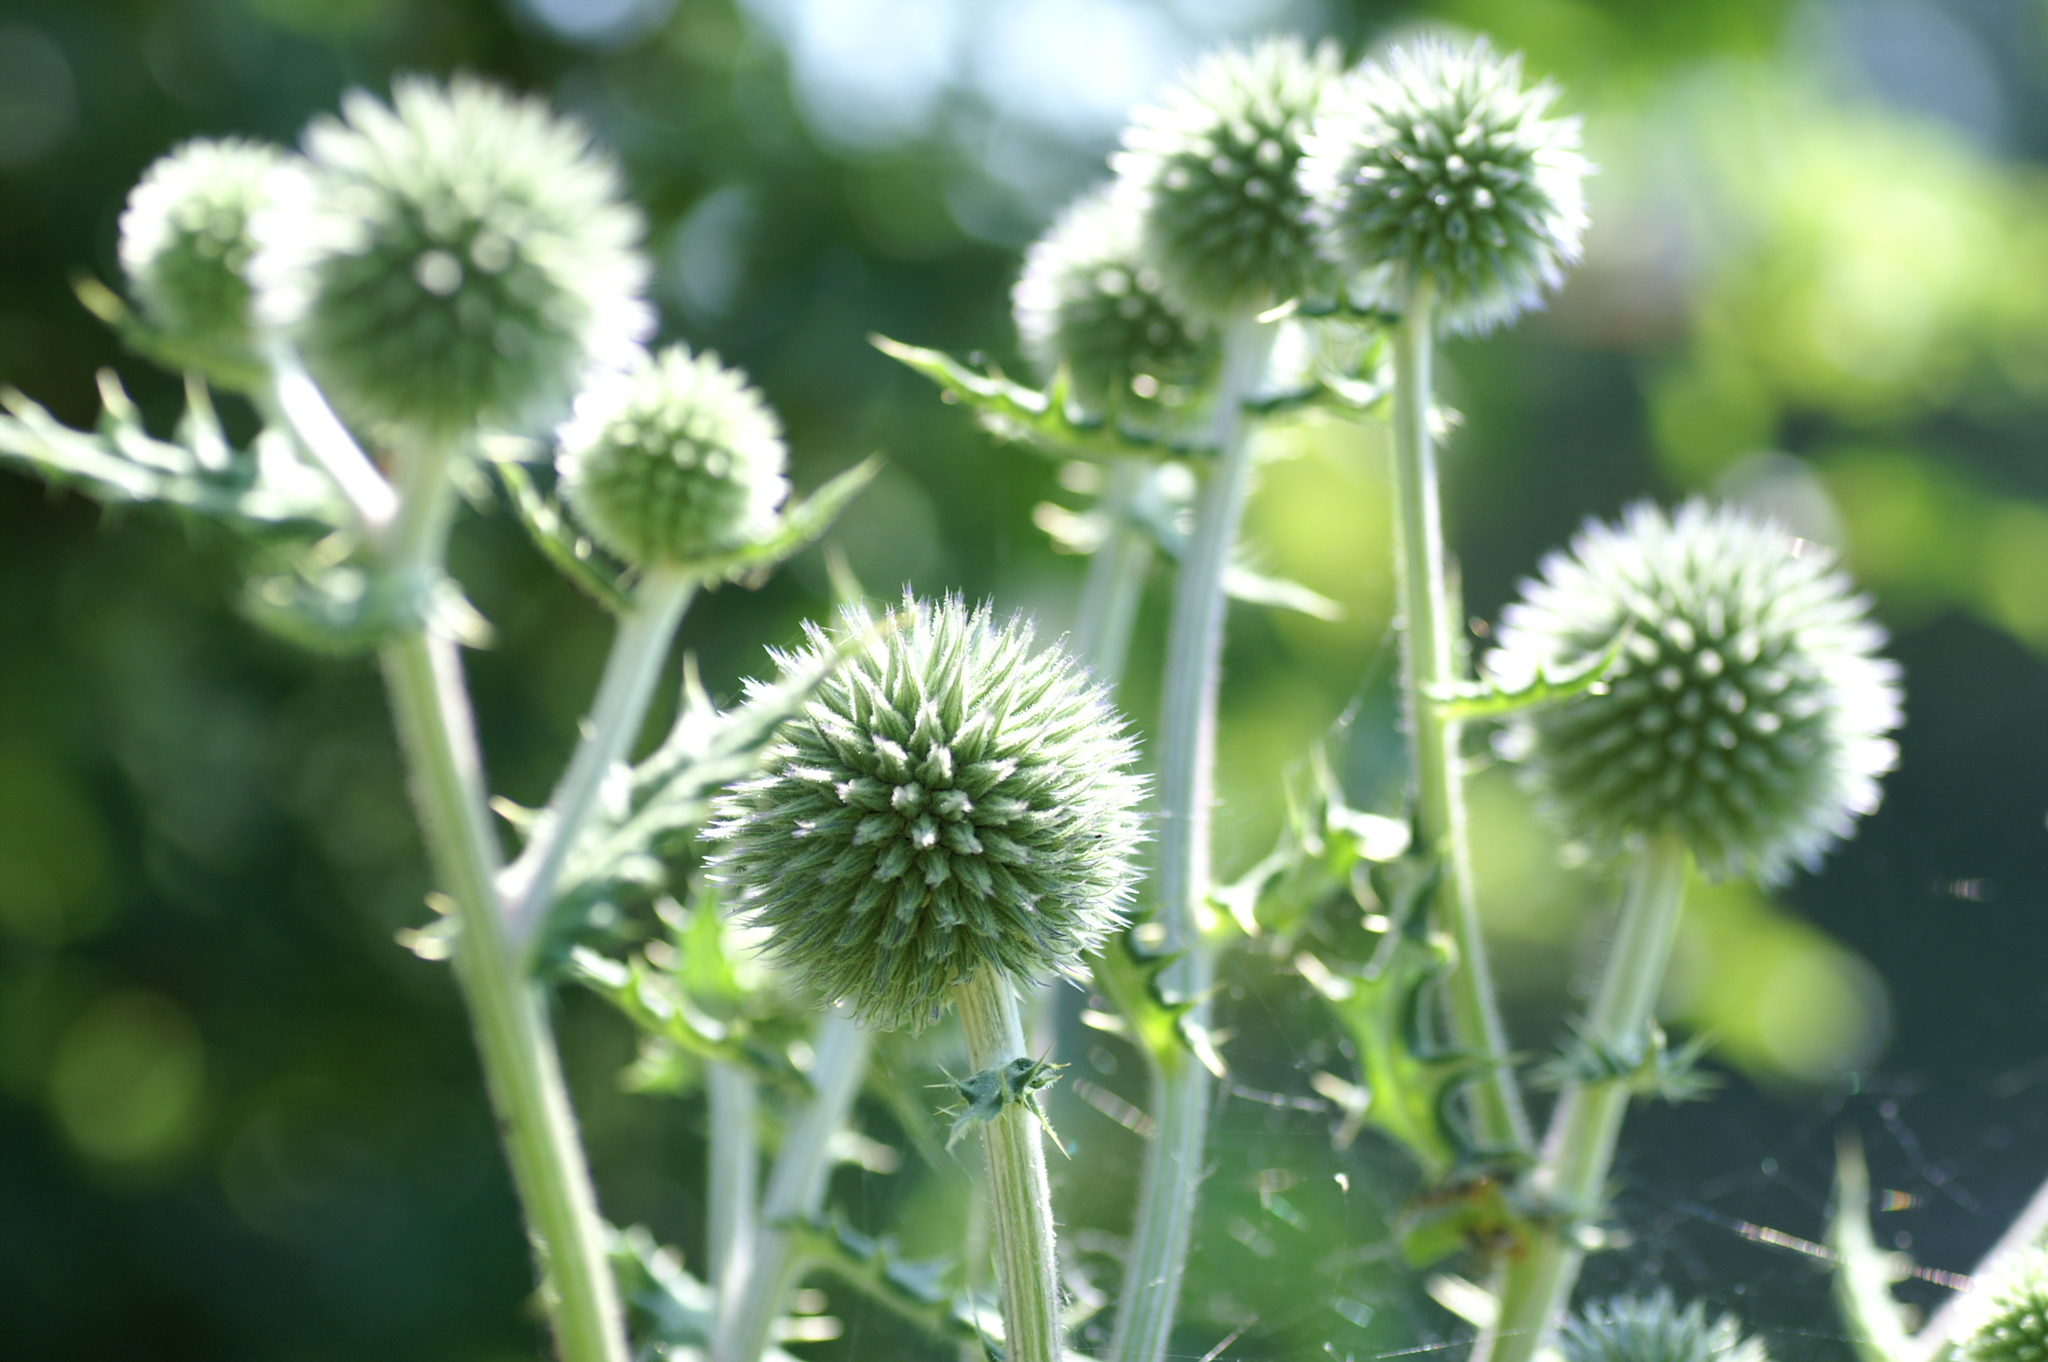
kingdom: Plantae
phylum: Tracheophyta
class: Magnoliopsida
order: Asterales
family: Asteraceae
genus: Echinops
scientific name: Echinops sphaerocephalus
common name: Glandular globe-thistle
